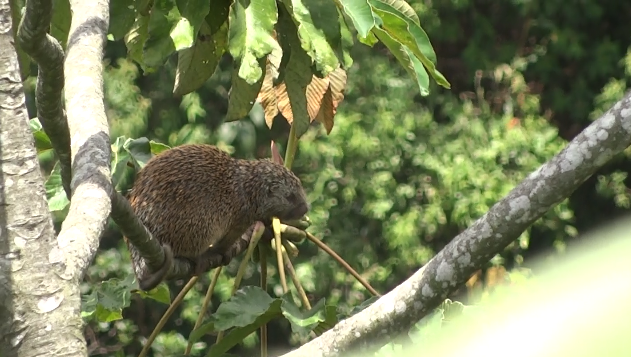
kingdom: Animalia
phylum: Chordata
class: Mammalia
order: Rodentia
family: Erethizontidae
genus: Echinoprocta
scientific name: Echinoprocta rufescens
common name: Stump-tailed porcupine
